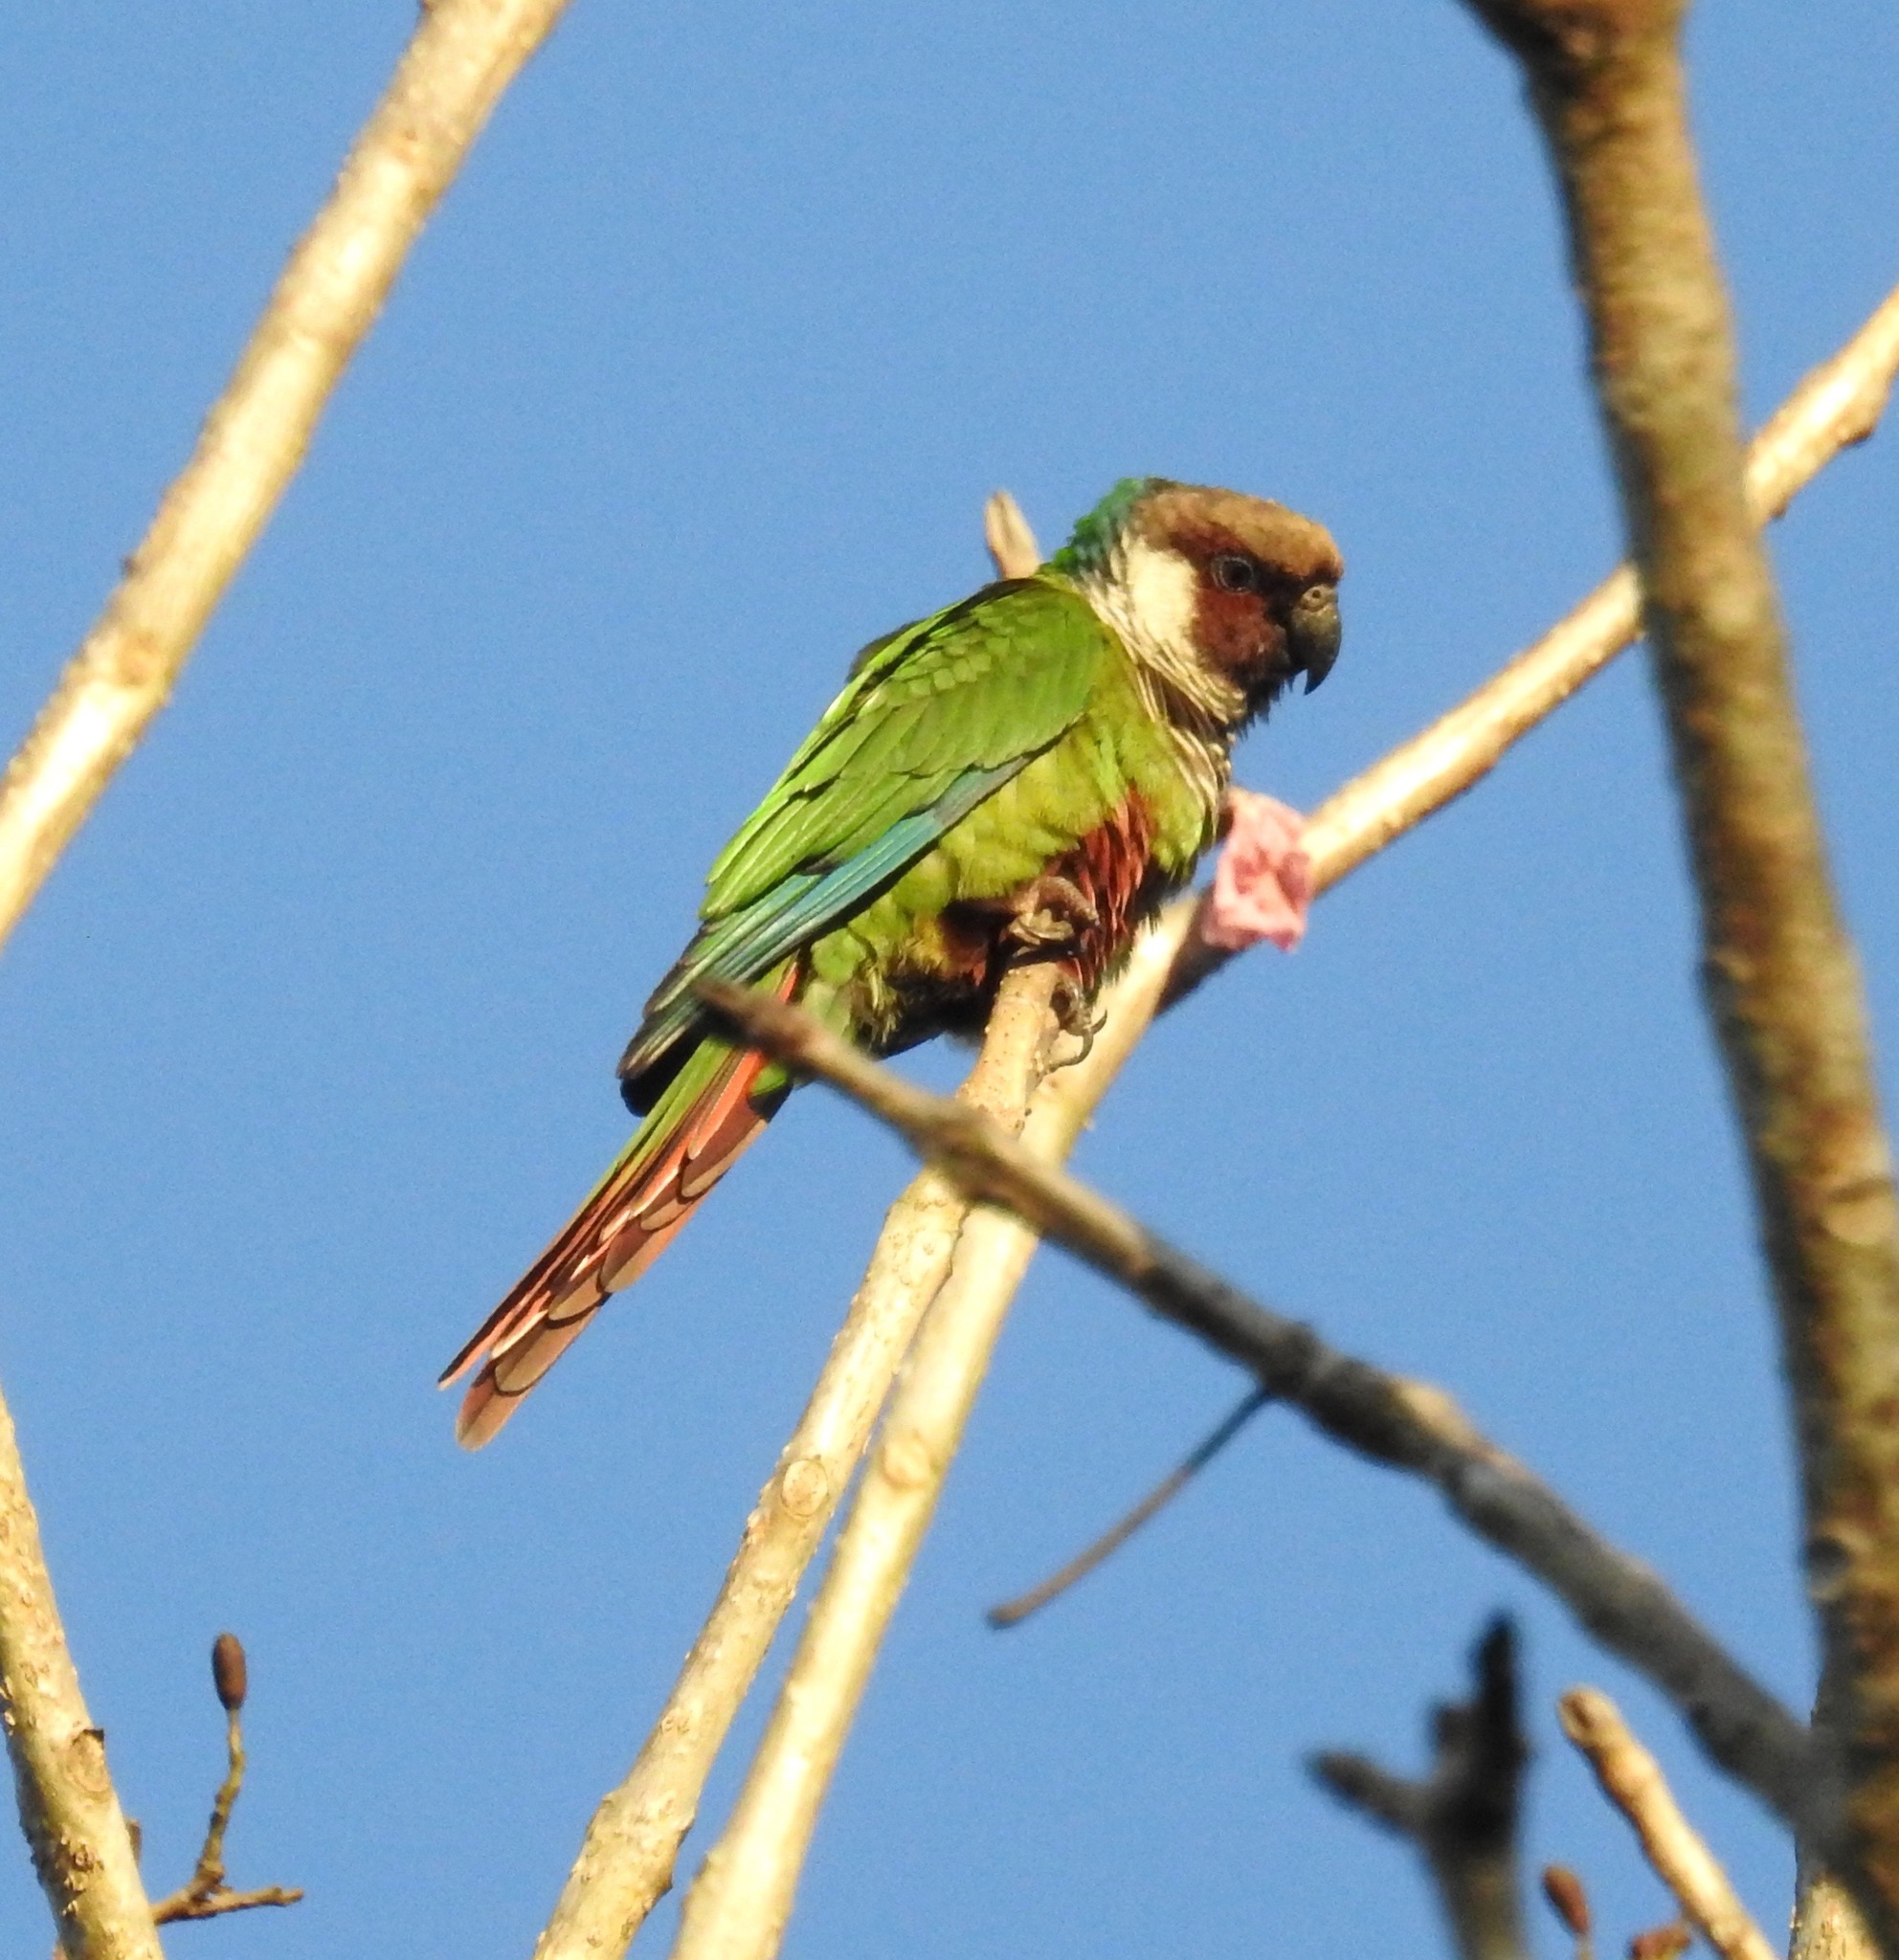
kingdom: Animalia
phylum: Chordata
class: Aves
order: Psittaciformes
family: Psittacidae
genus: Pyrrhura
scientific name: Pyrrhura griseipectus
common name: Gray-breasted parakeet
